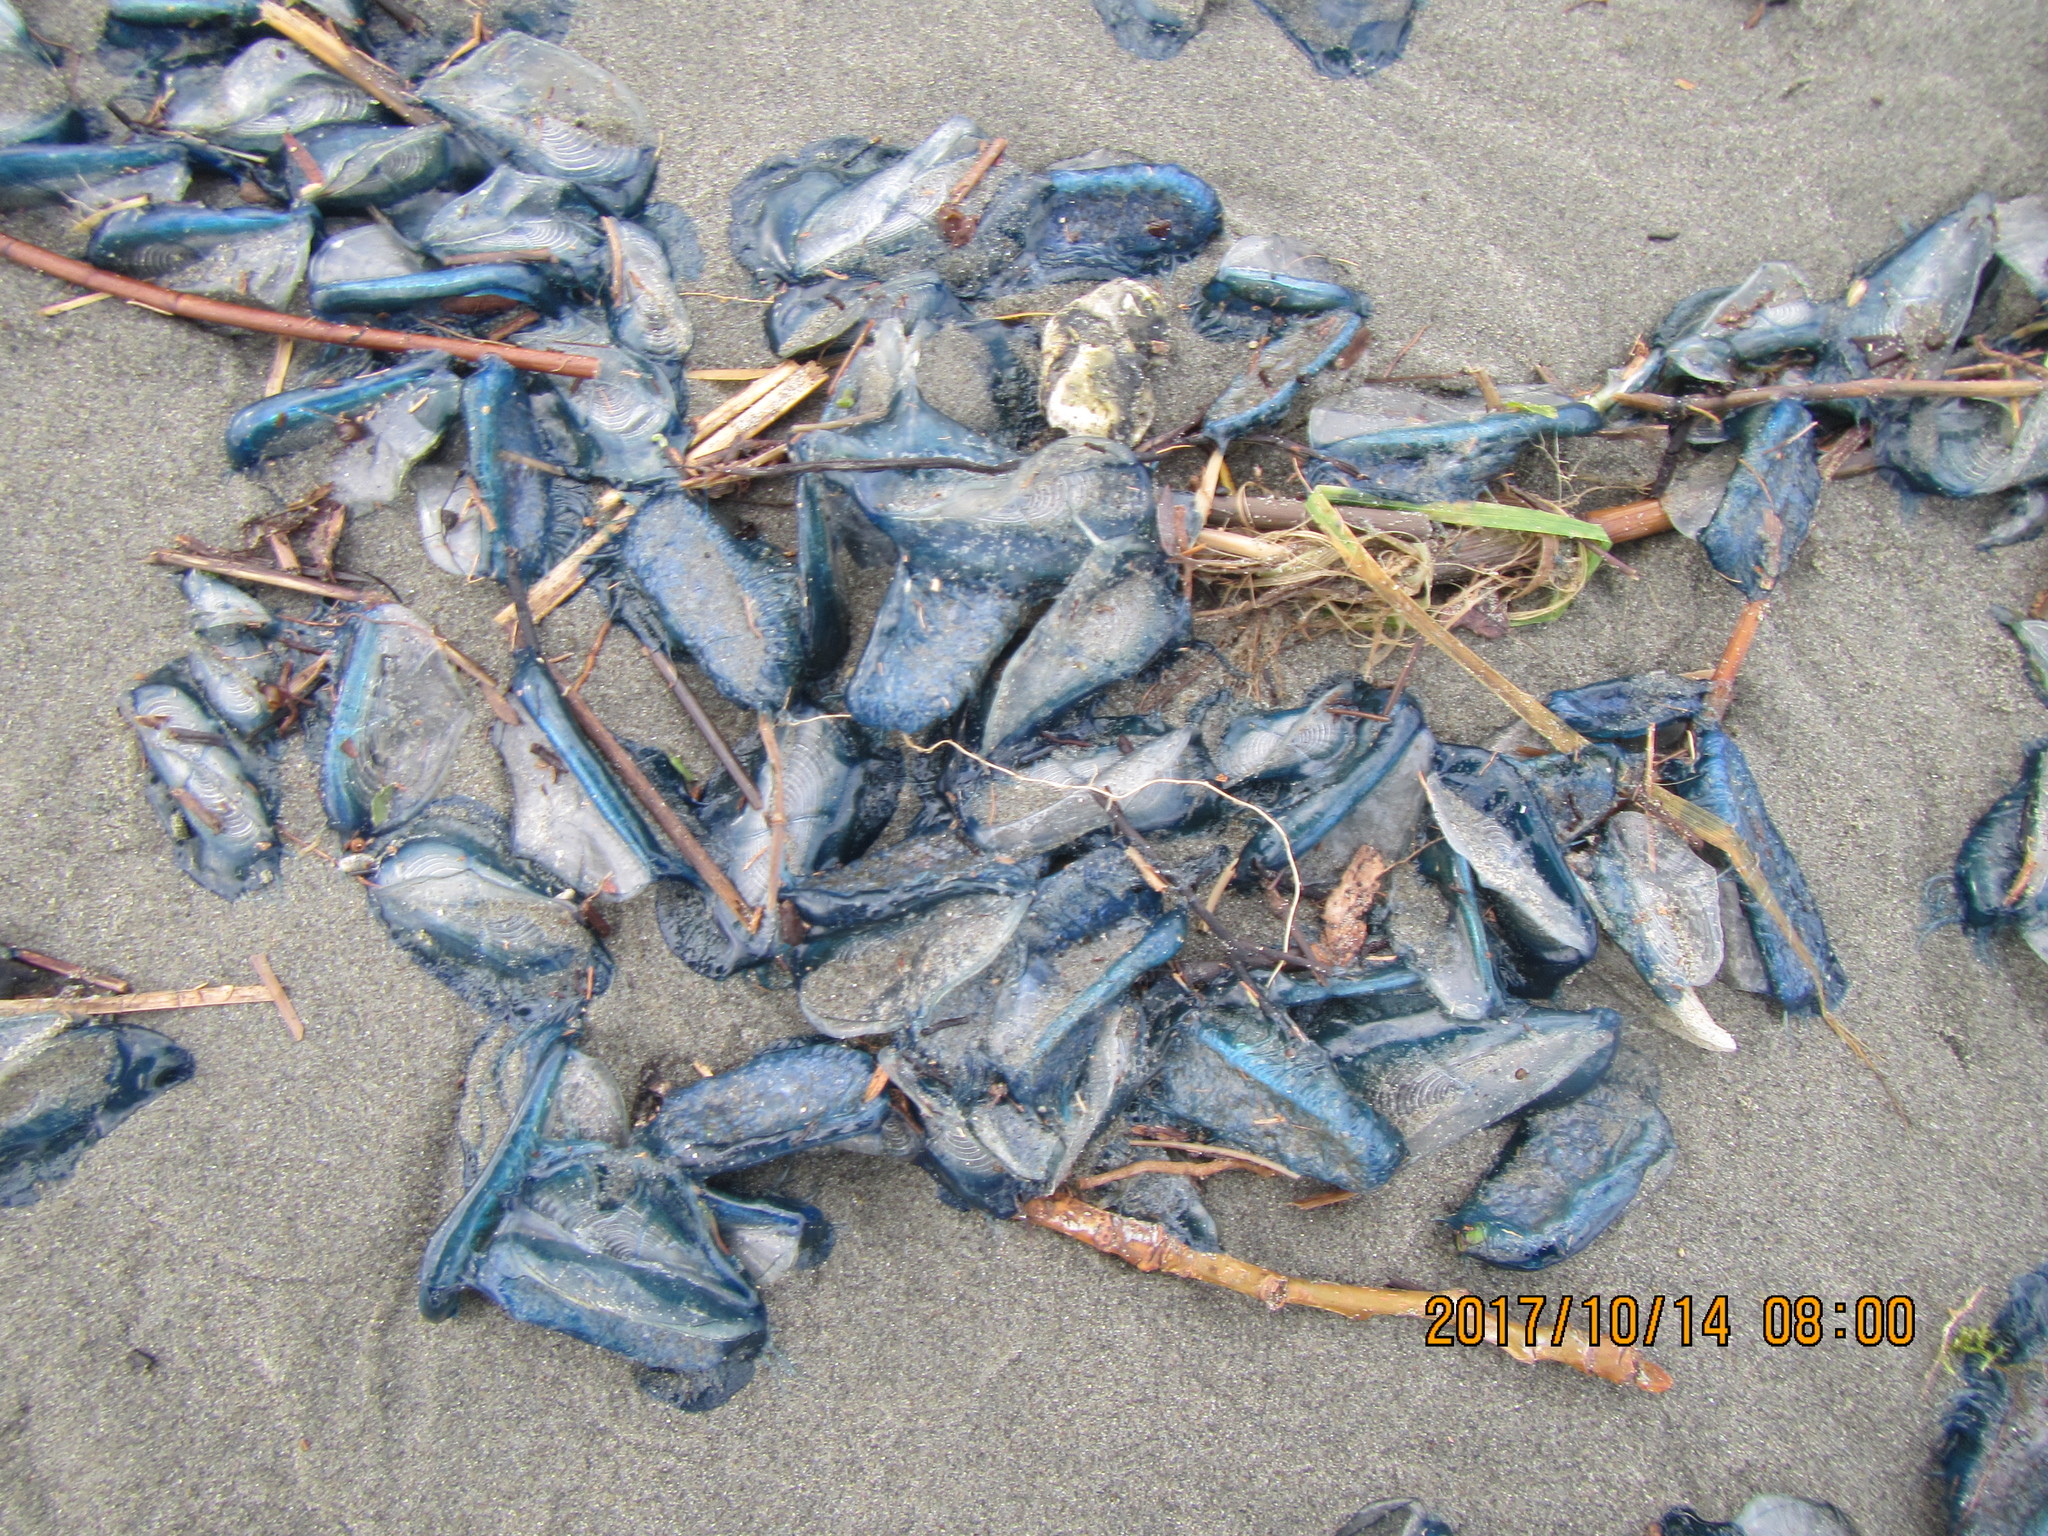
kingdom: Animalia
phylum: Cnidaria
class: Hydrozoa
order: Anthoathecata
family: Porpitidae
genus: Velella
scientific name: Velella velella
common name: By-the-wind-sailor
